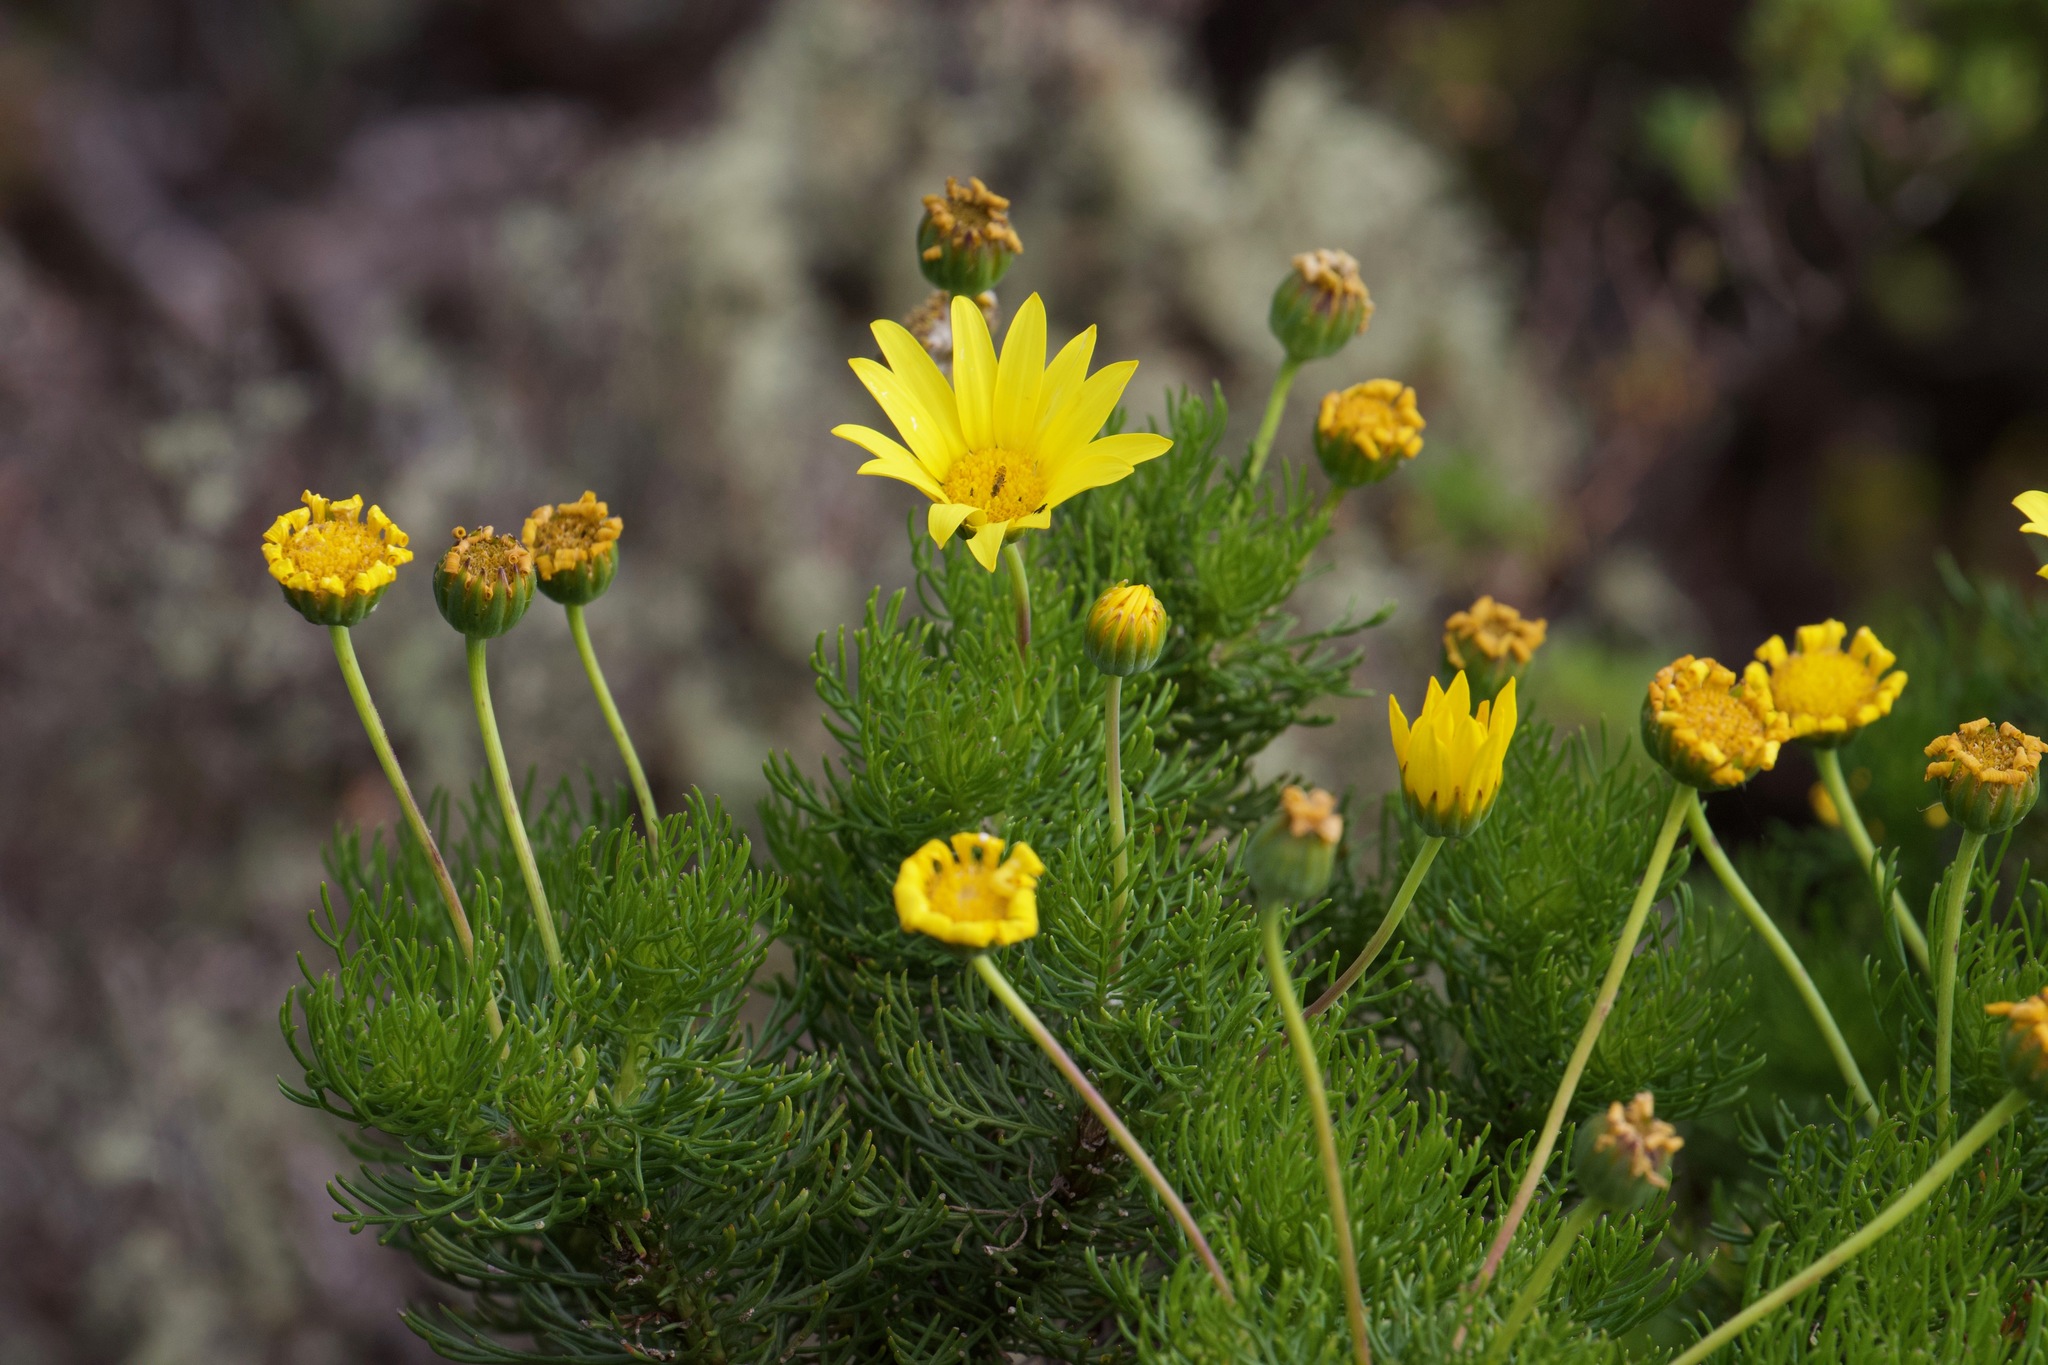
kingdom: Plantae
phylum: Tracheophyta
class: Magnoliopsida
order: Asterales
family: Asteraceae
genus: Euryops
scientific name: Euryops abrotanifolius
